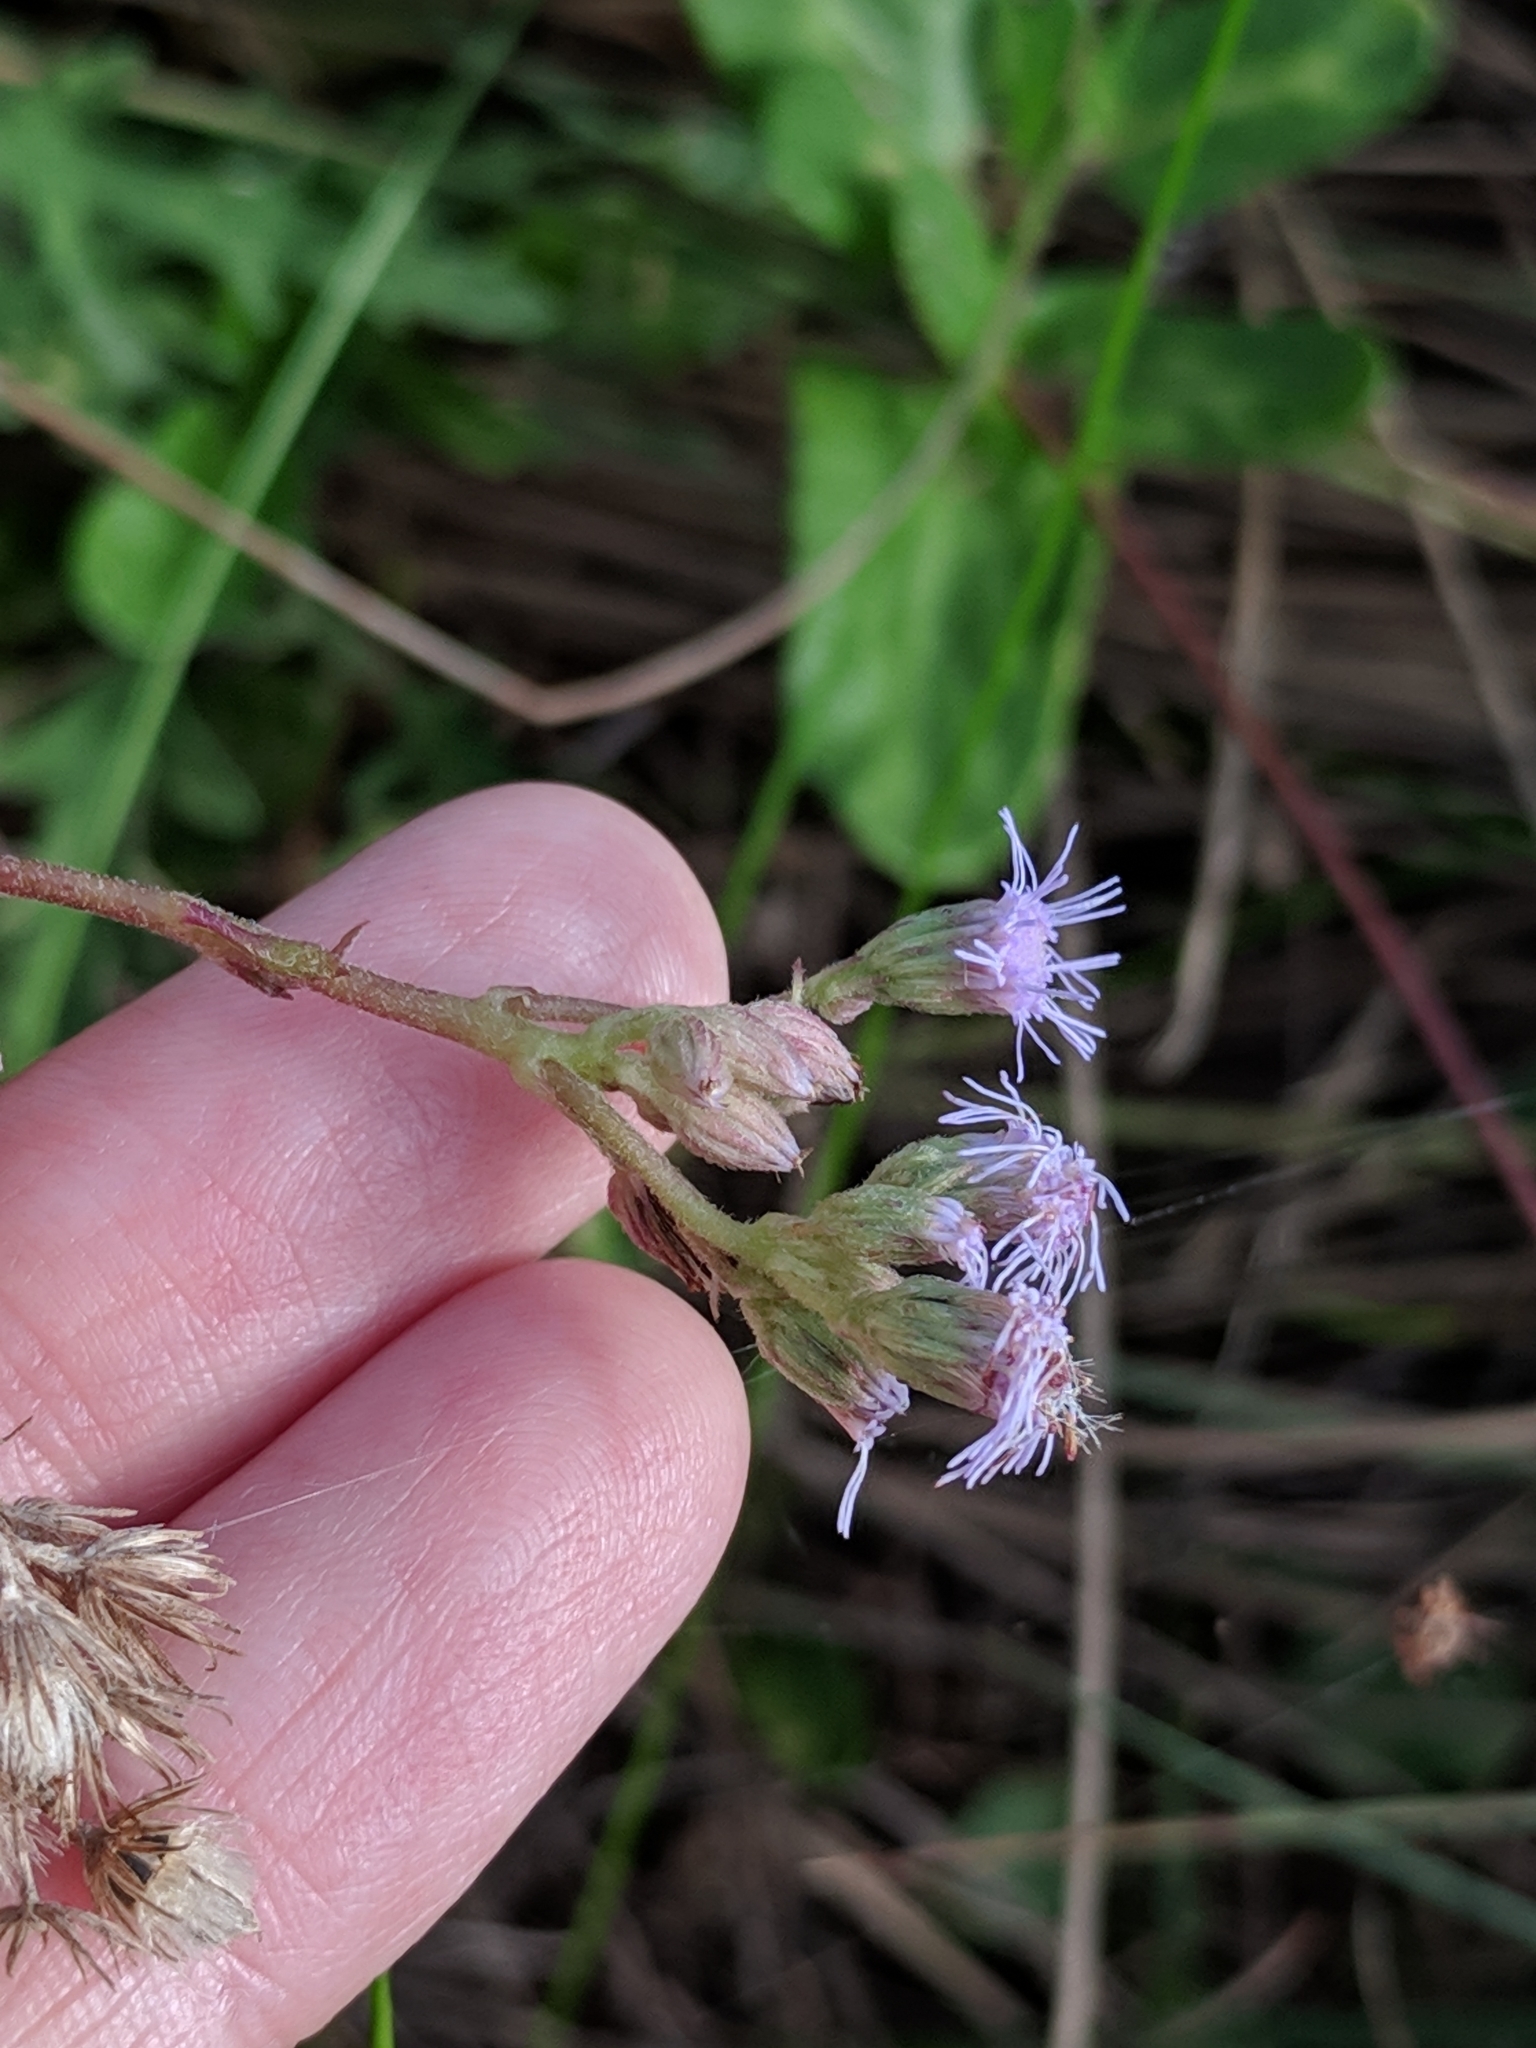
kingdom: Plantae
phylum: Tracheophyta
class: Magnoliopsida
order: Asterales
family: Asteraceae
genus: Conoclinium
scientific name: Conoclinium betonicifolium
